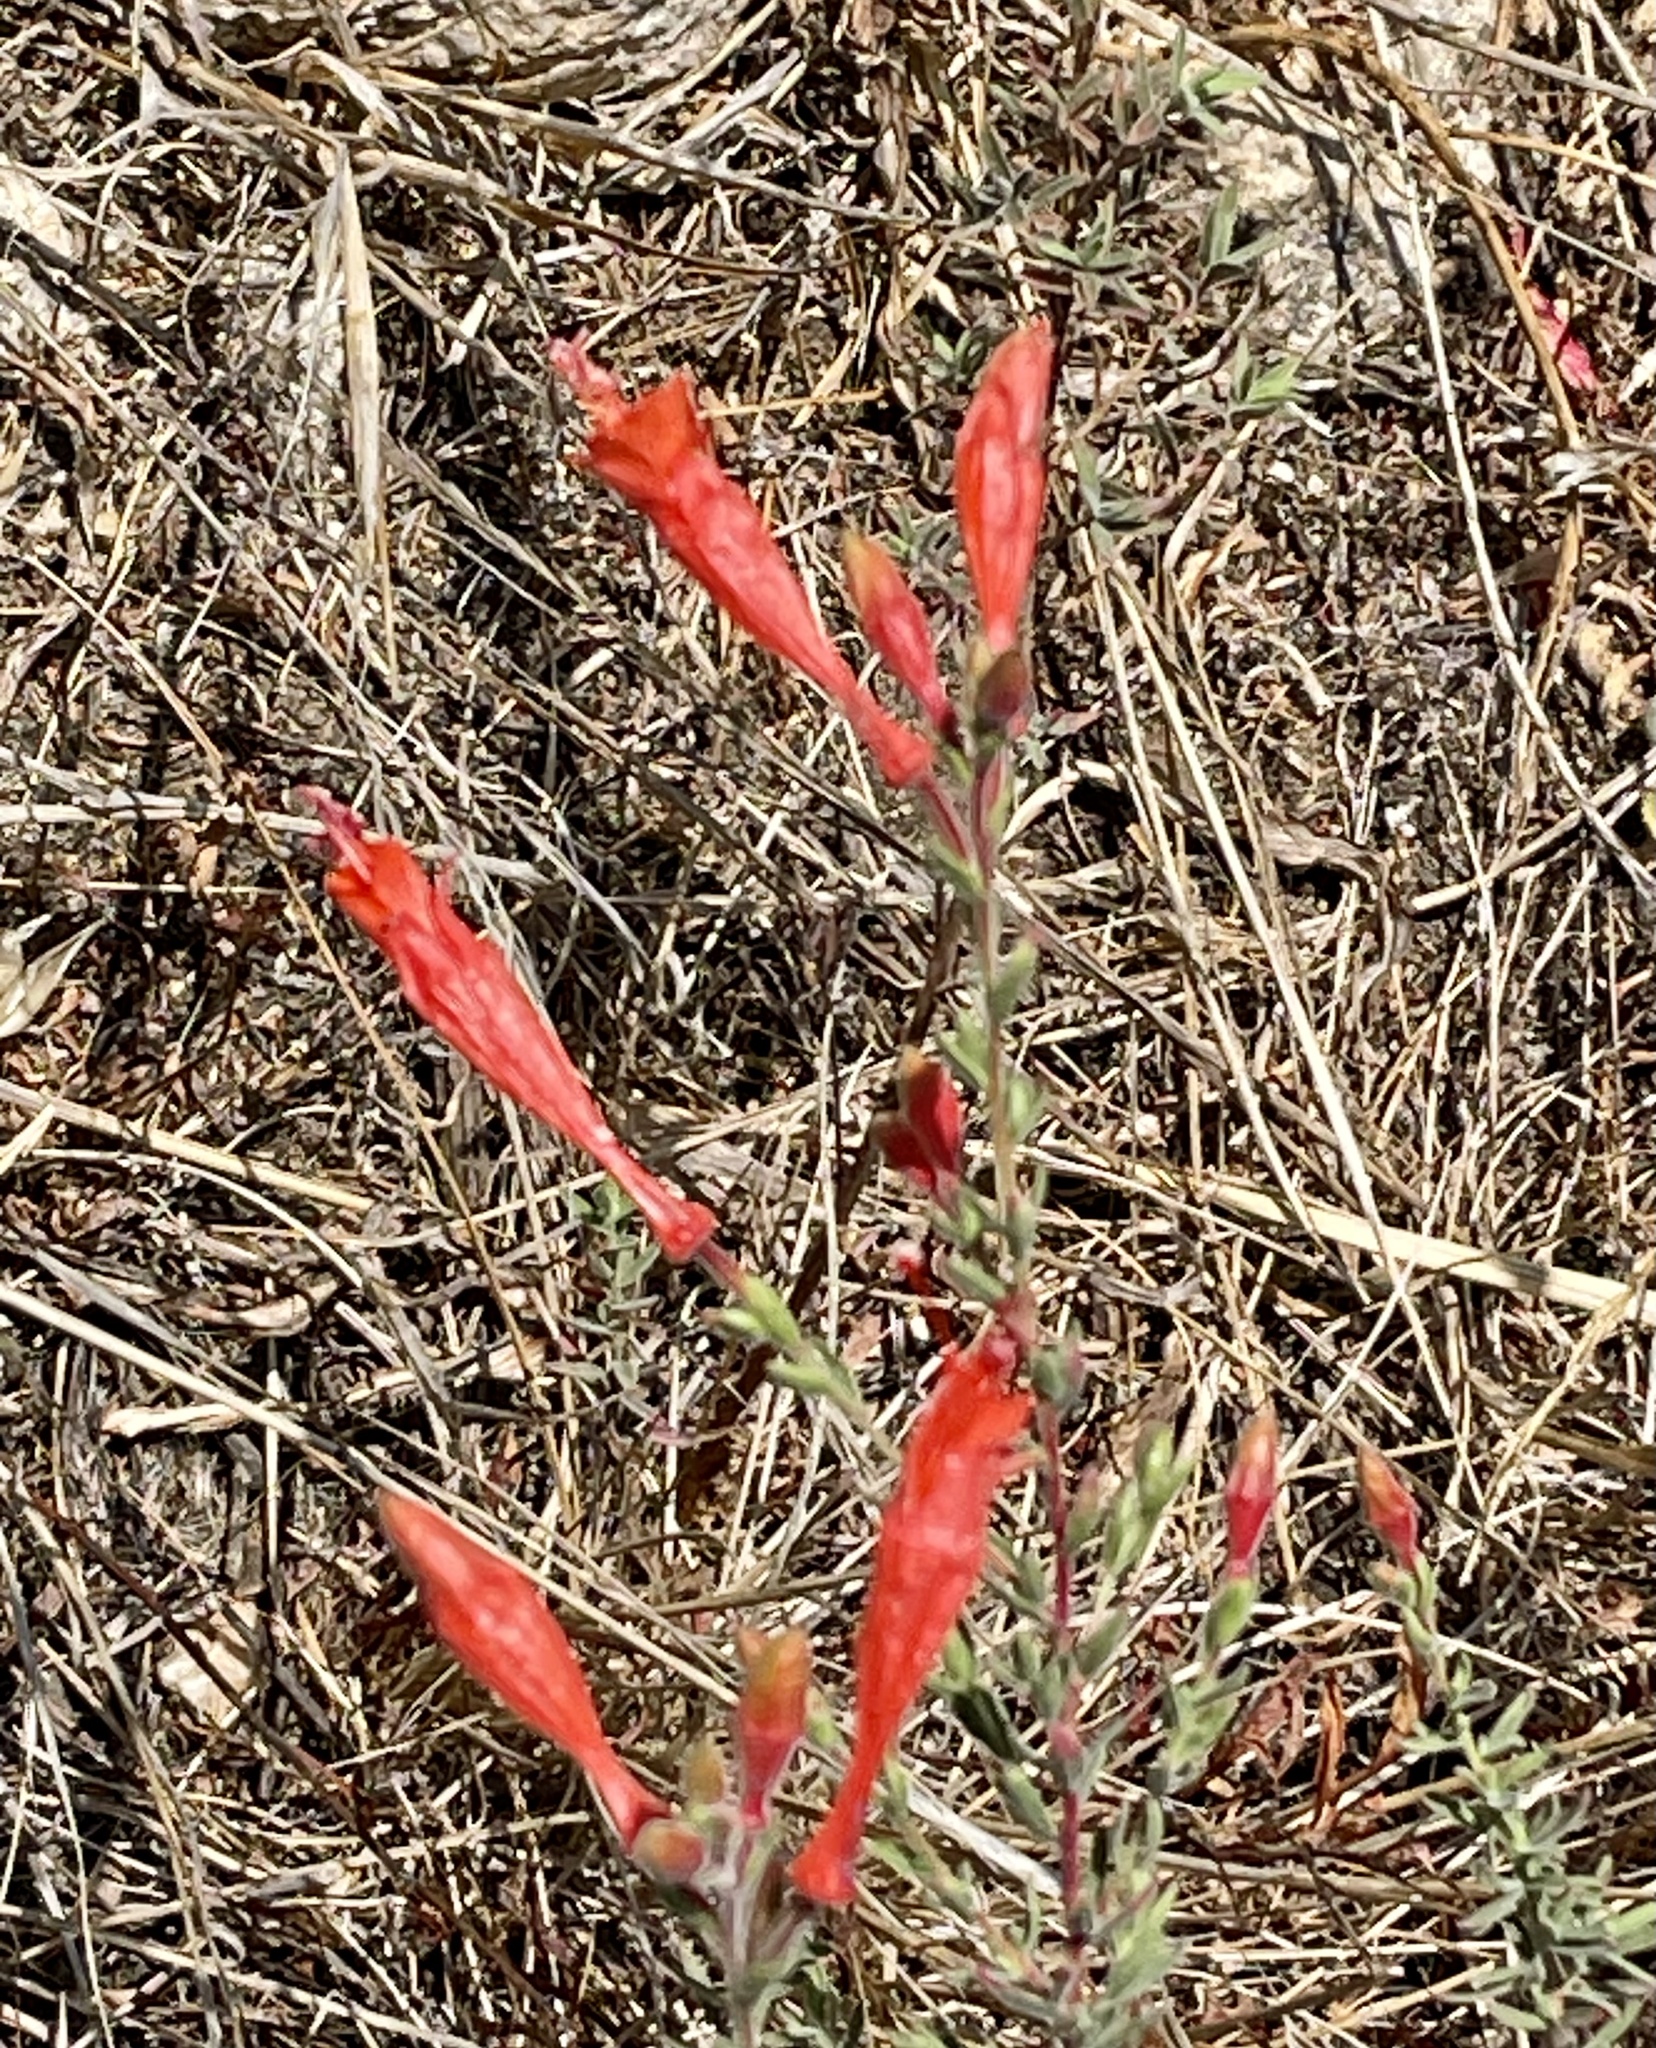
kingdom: Plantae
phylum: Tracheophyta
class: Magnoliopsida
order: Myrtales
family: Onagraceae
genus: Epilobium
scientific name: Epilobium canum
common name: California-fuchsia
